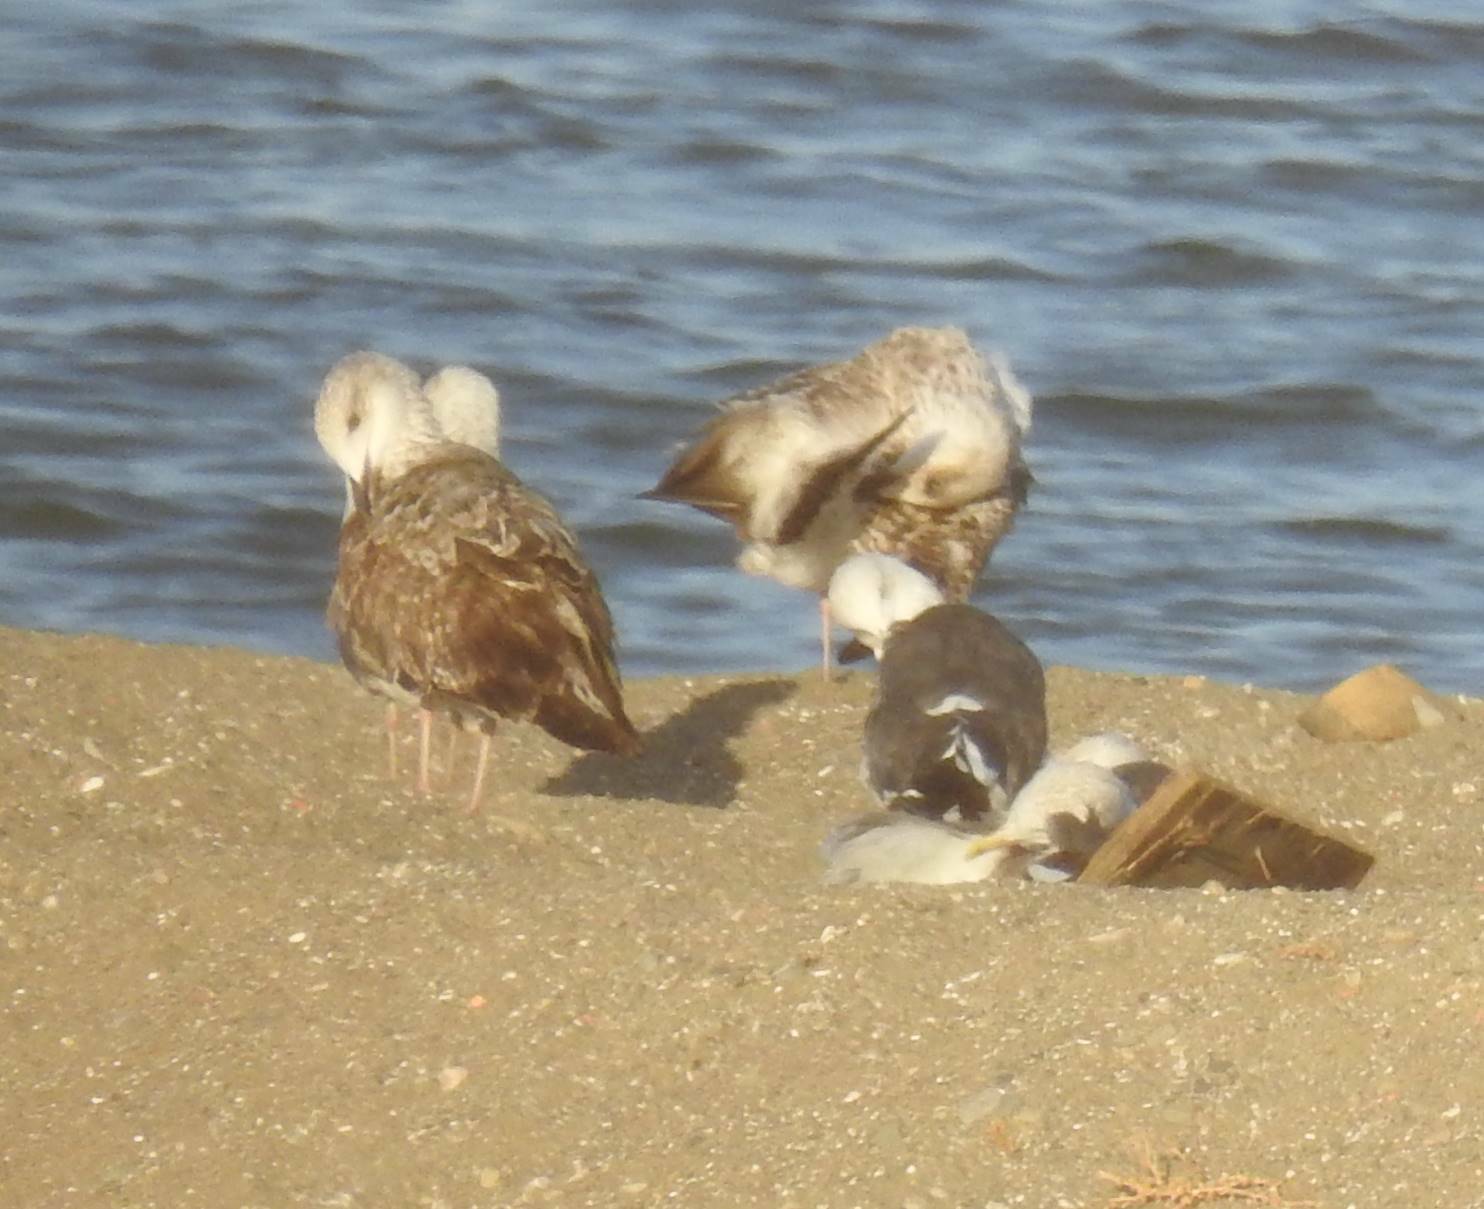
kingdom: Animalia
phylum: Chordata
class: Aves
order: Charadriiformes
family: Laridae
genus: Larus
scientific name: Larus fuscus
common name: Lesser black-backed gull
